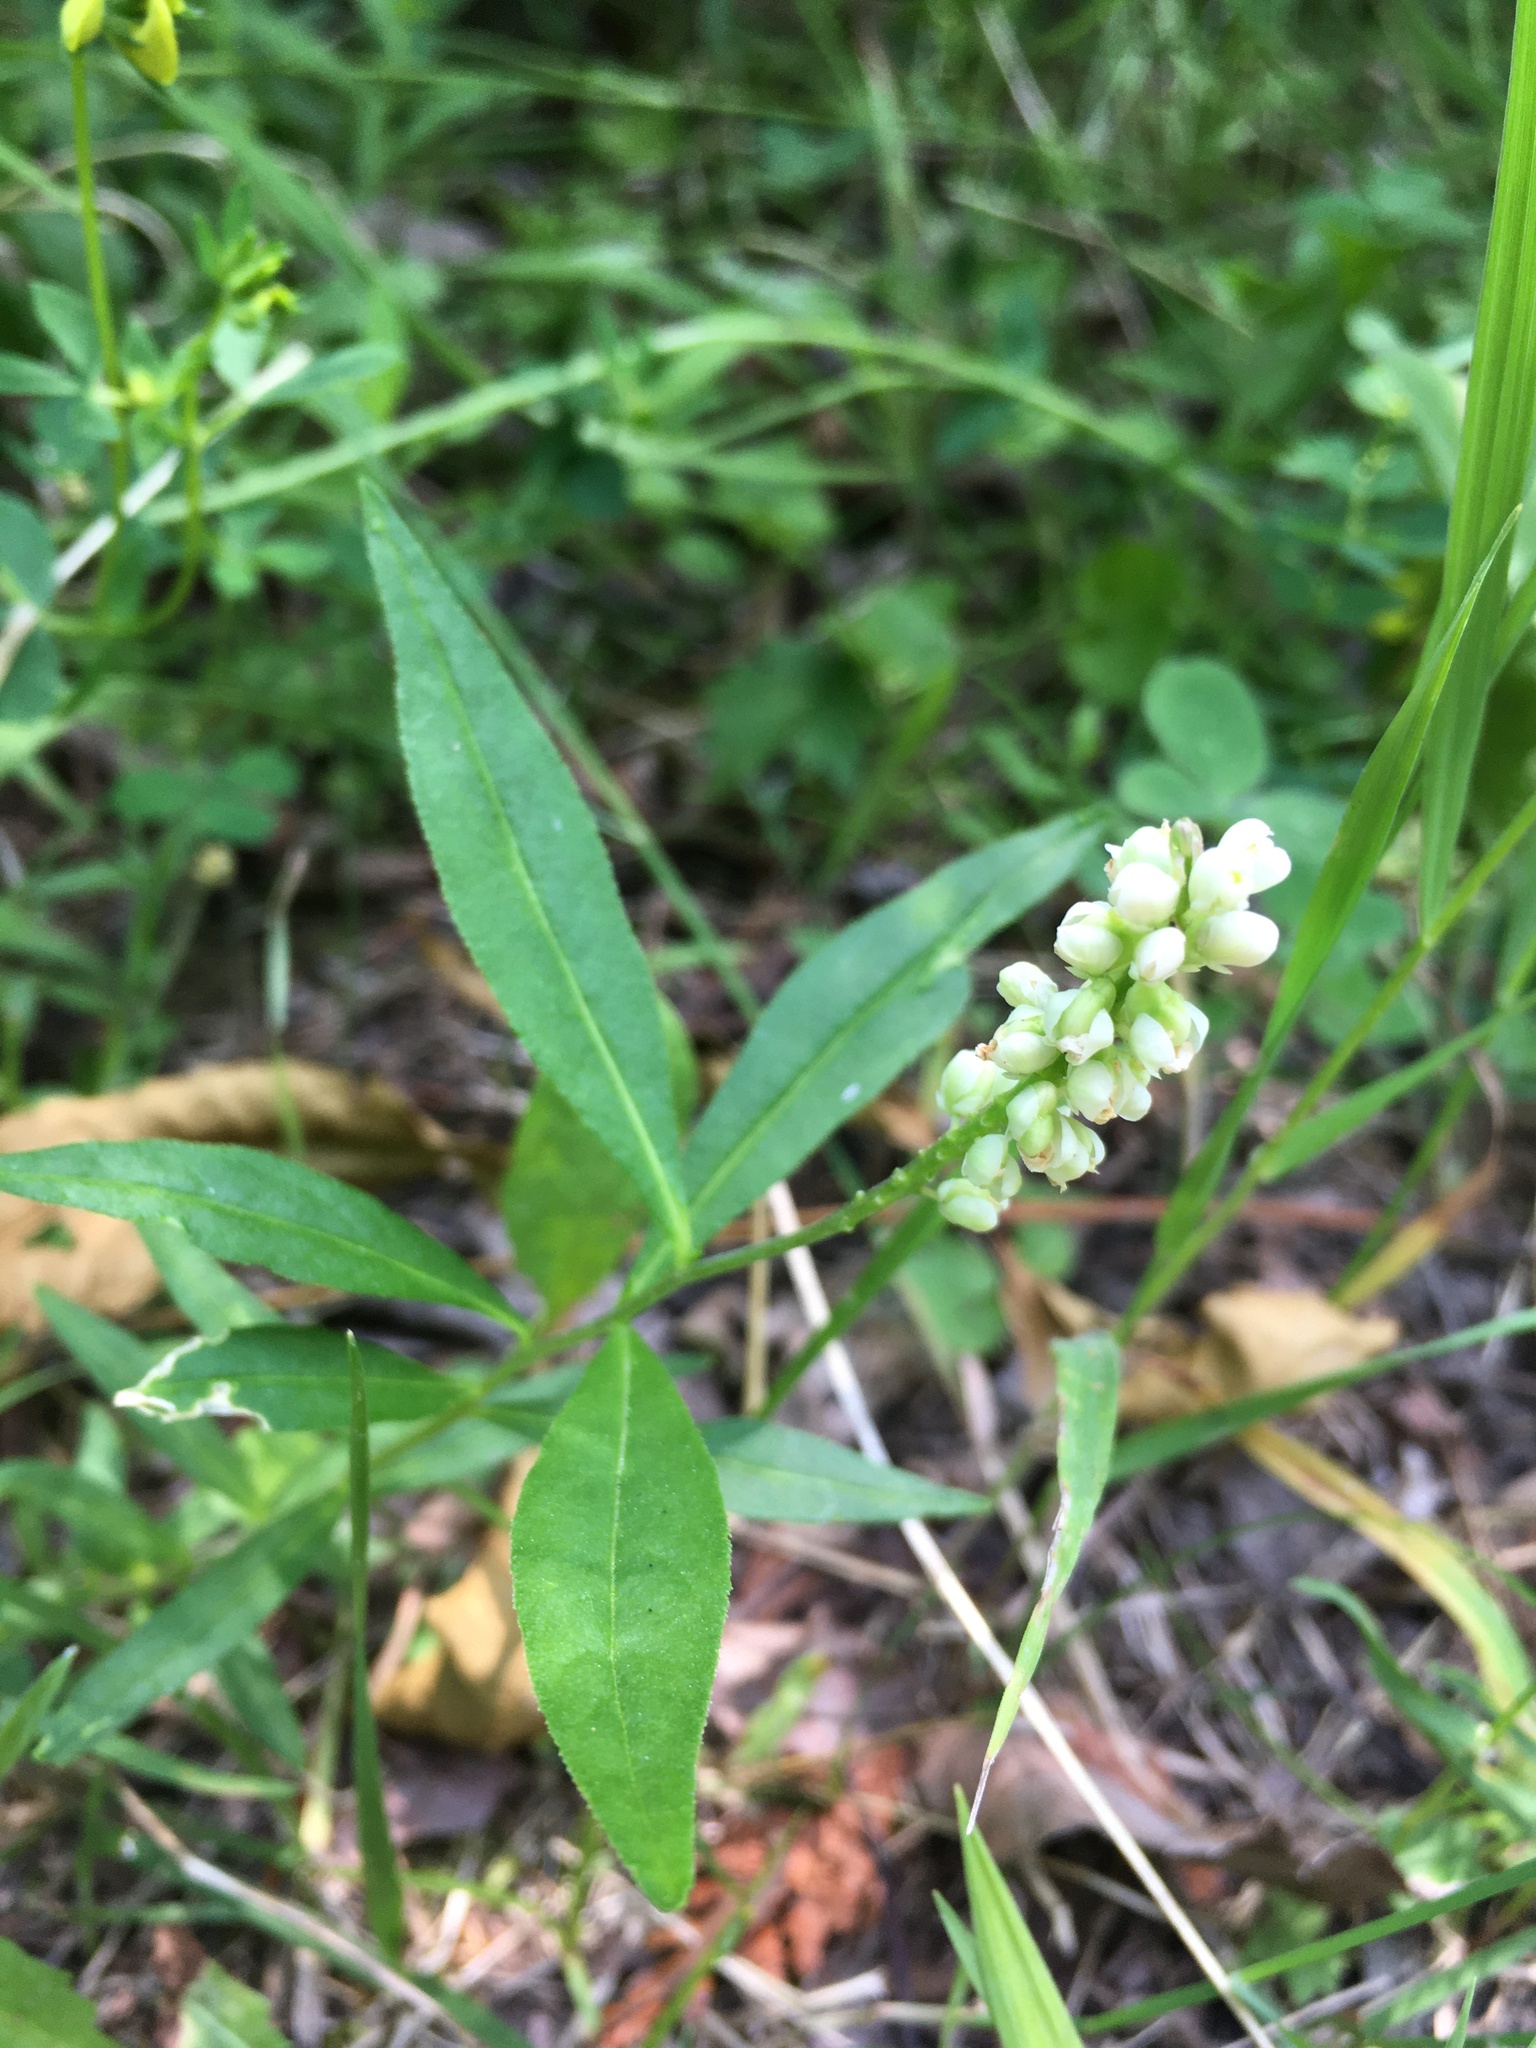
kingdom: Plantae
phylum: Tracheophyta
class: Magnoliopsida
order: Fabales
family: Polygalaceae
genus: Polygala
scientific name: Polygala senega
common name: Seneca snakeroot
